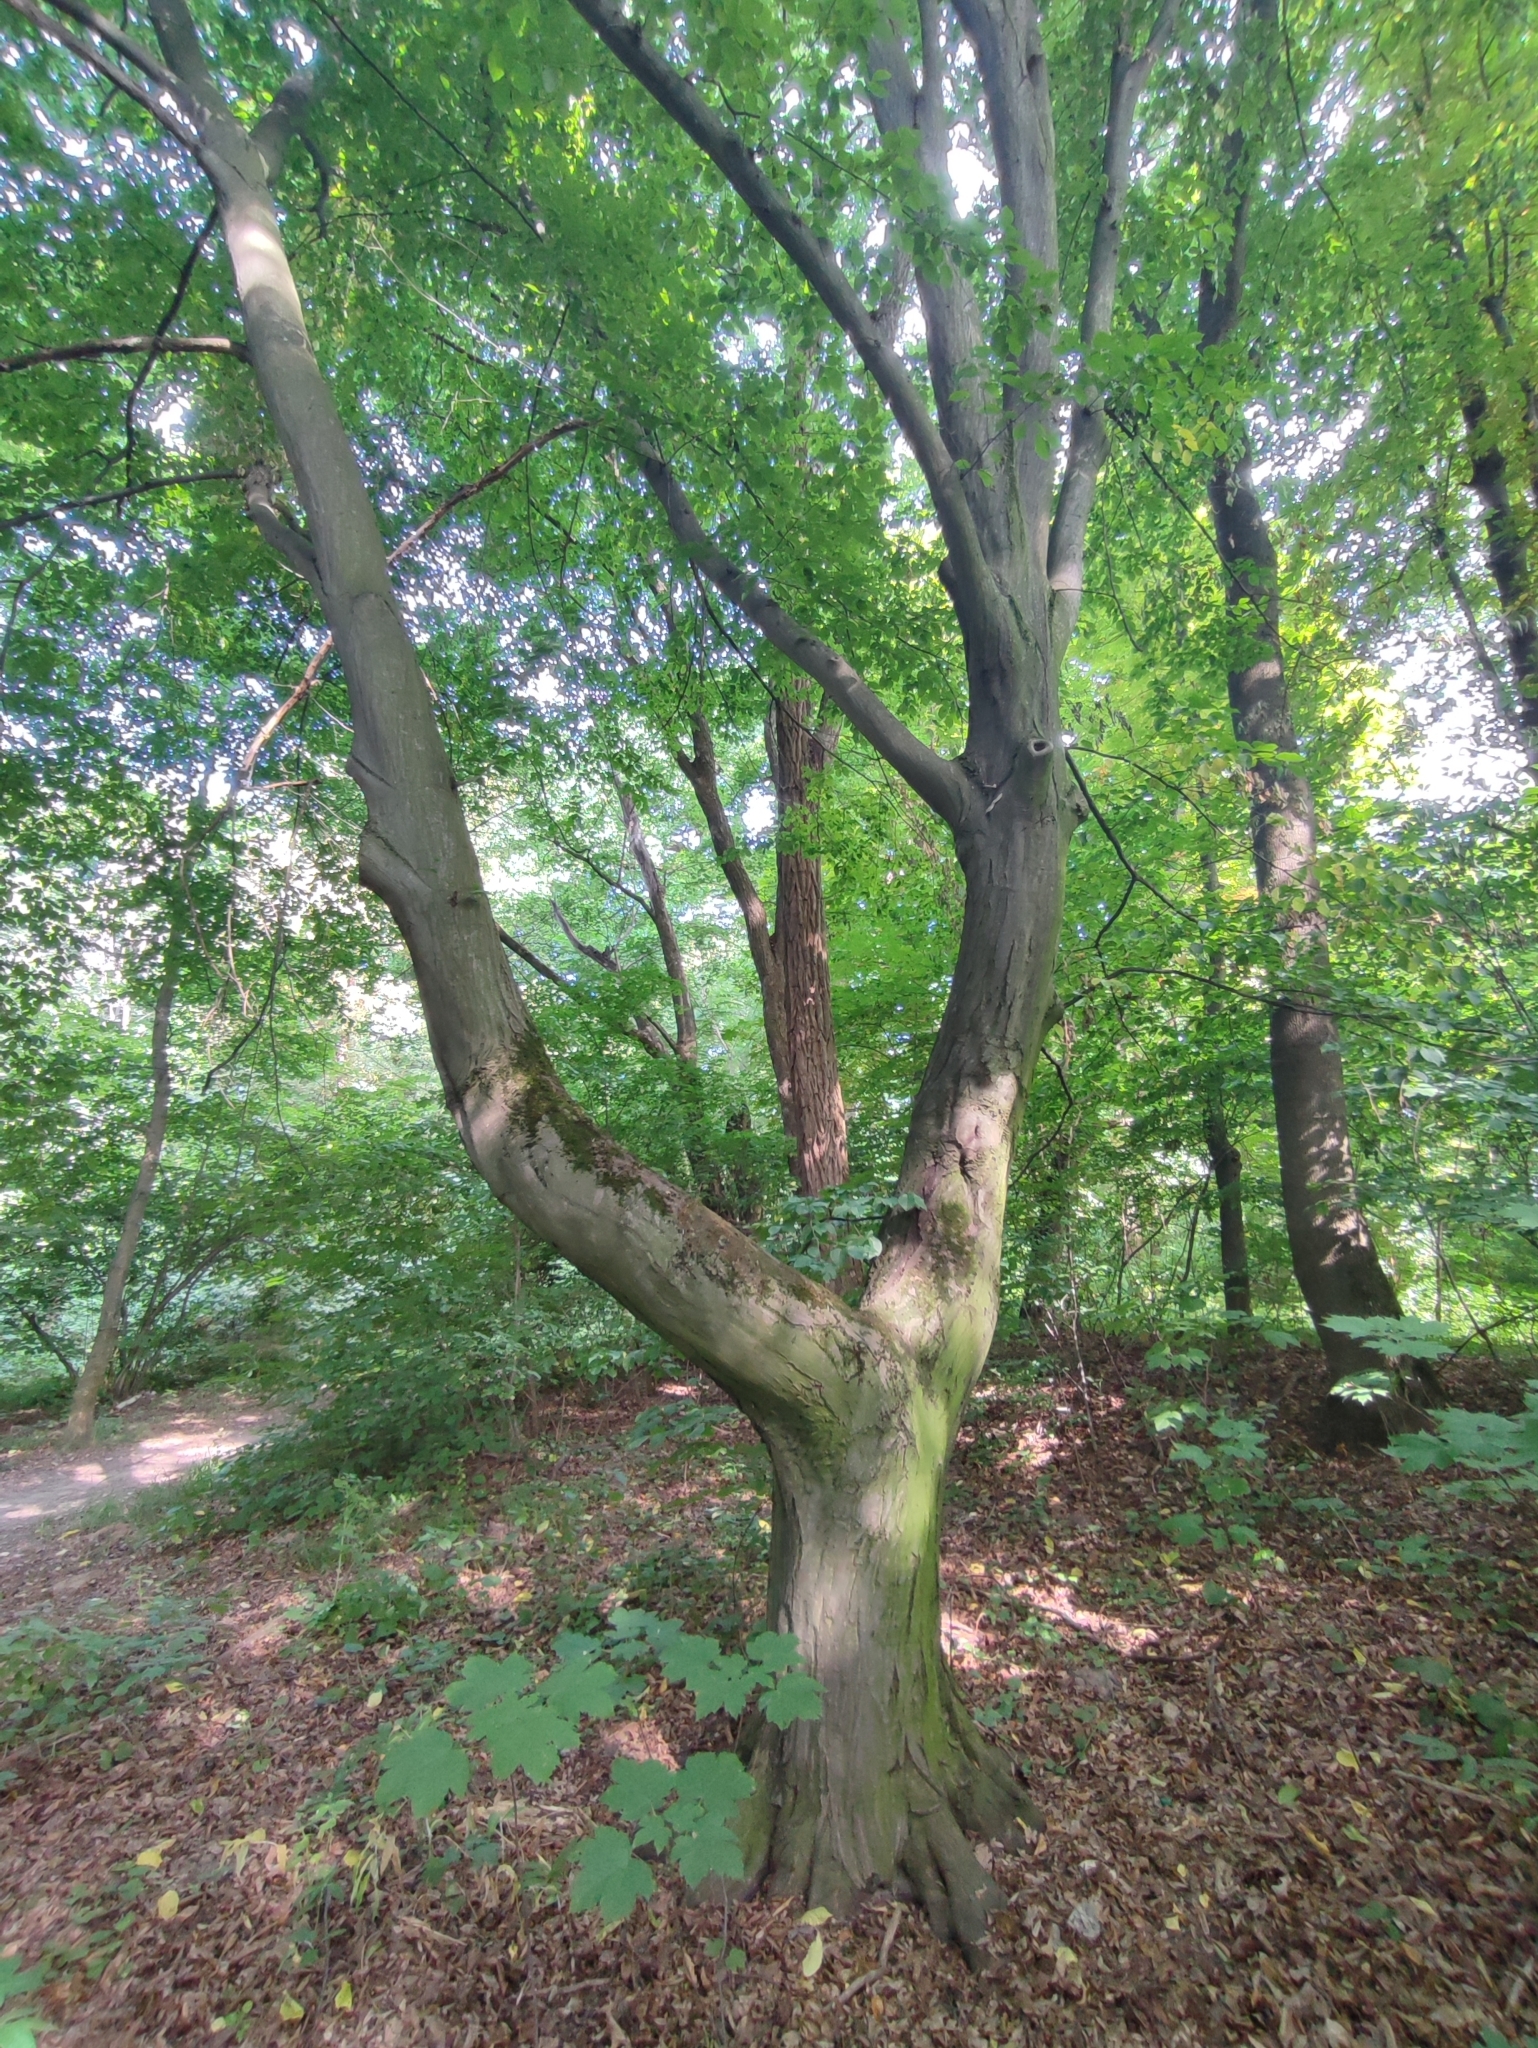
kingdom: Plantae
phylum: Tracheophyta
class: Magnoliopsida
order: Fagales
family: Betulaceae
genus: Carpinus
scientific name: Carpinus betulus
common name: Hornbeam
